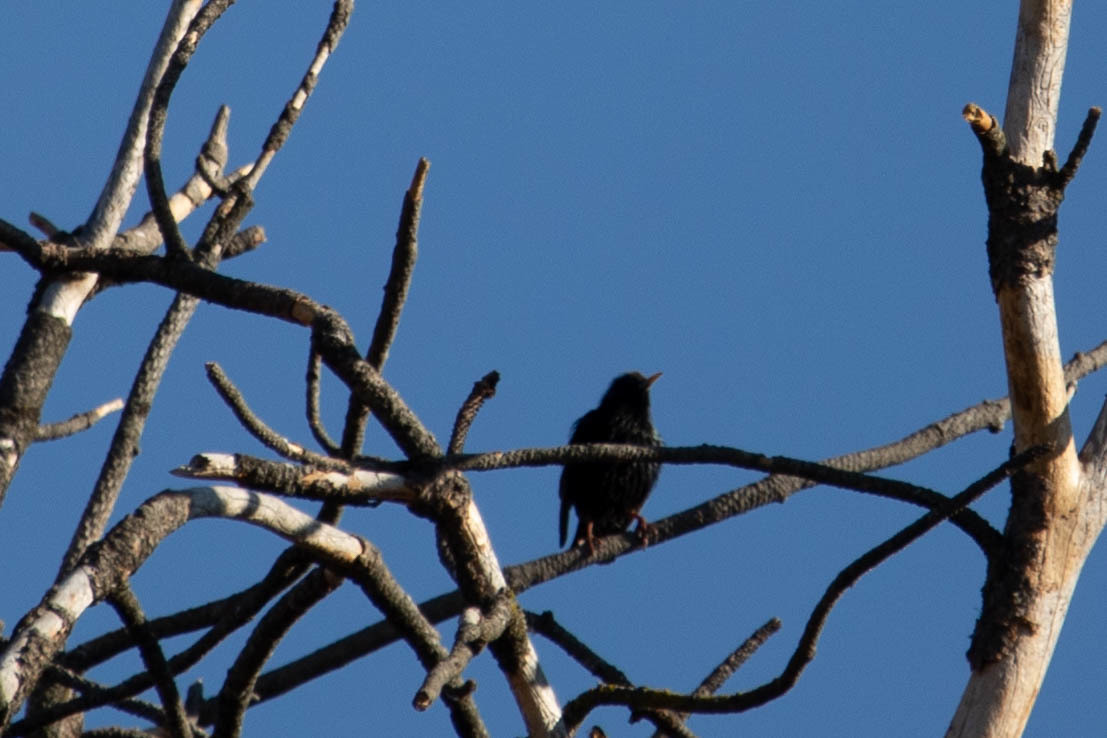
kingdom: Animalia
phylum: Chordata
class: Aves
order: Passeriformes
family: Sturnidae
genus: Sturnus
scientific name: Sturnus vulgaris
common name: Common starling
